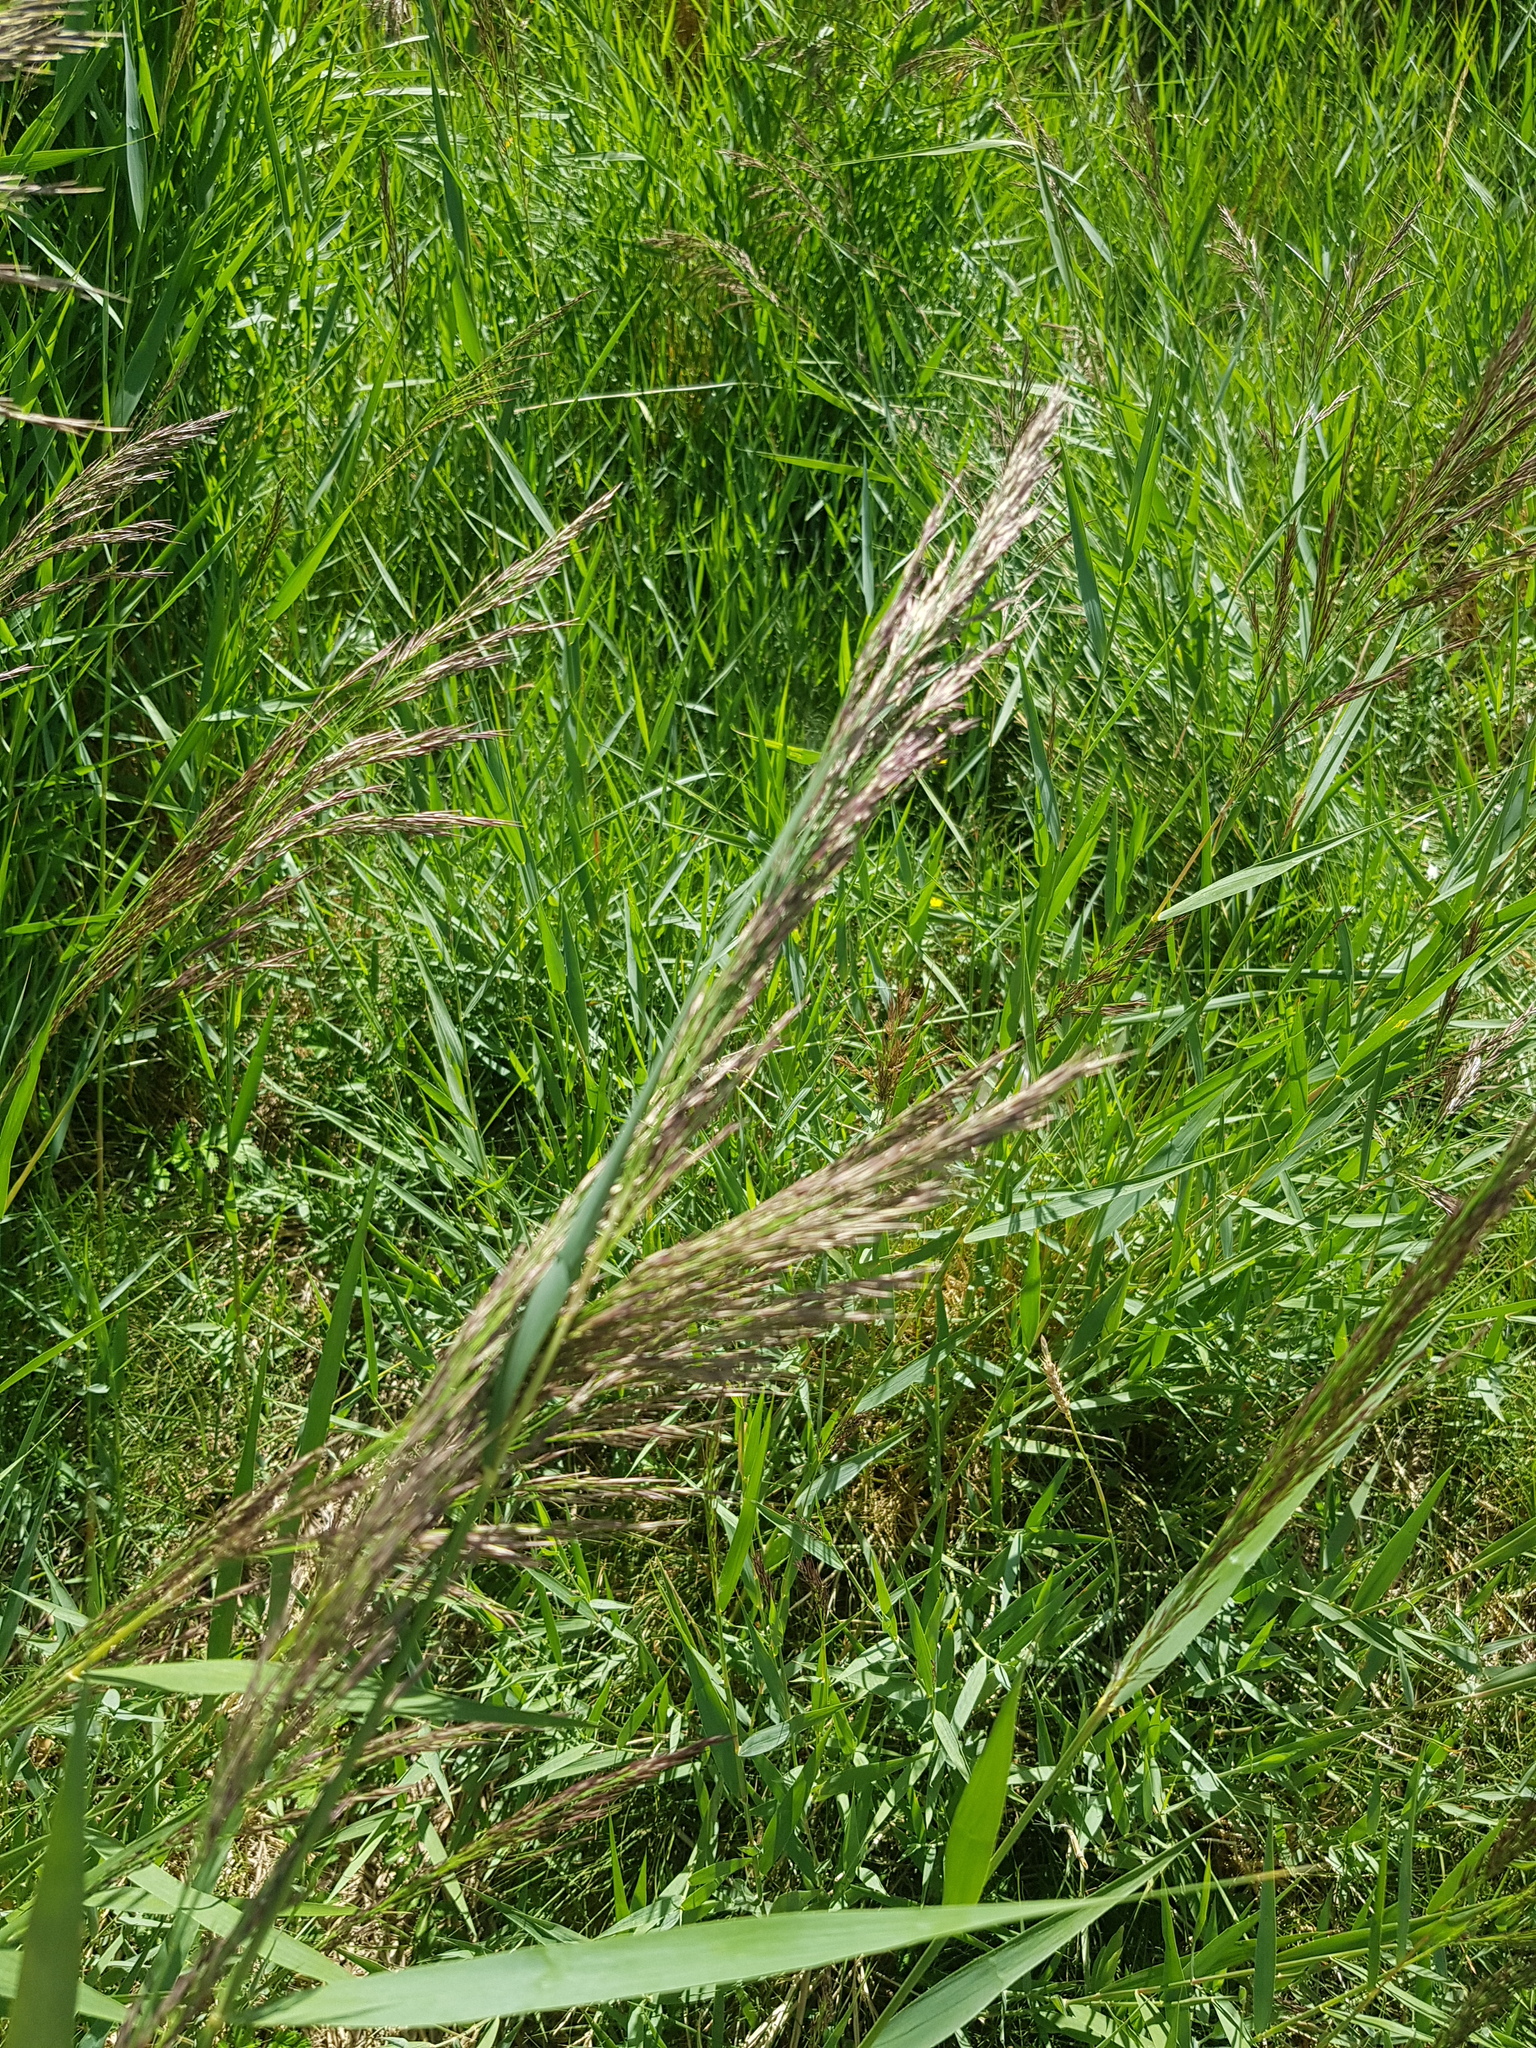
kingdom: Plantae
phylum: Tracheophyta
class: Liliopsida
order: Poales
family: Poaceae
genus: Phragmites
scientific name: Phragmites australis
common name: Common reed
